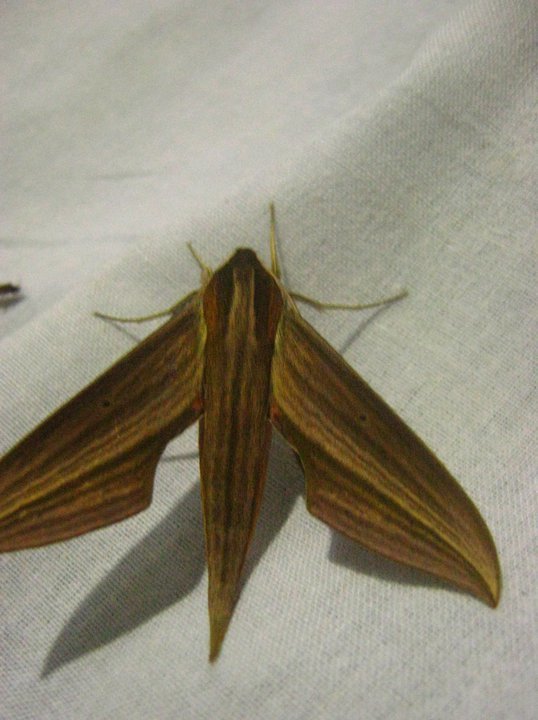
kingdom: Animalia
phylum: Arthropoda
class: Insecta
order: Lepidoptera
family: Sphingidae
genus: Xylophanes
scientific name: Xylophanes tersa
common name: Tersa sphinx
